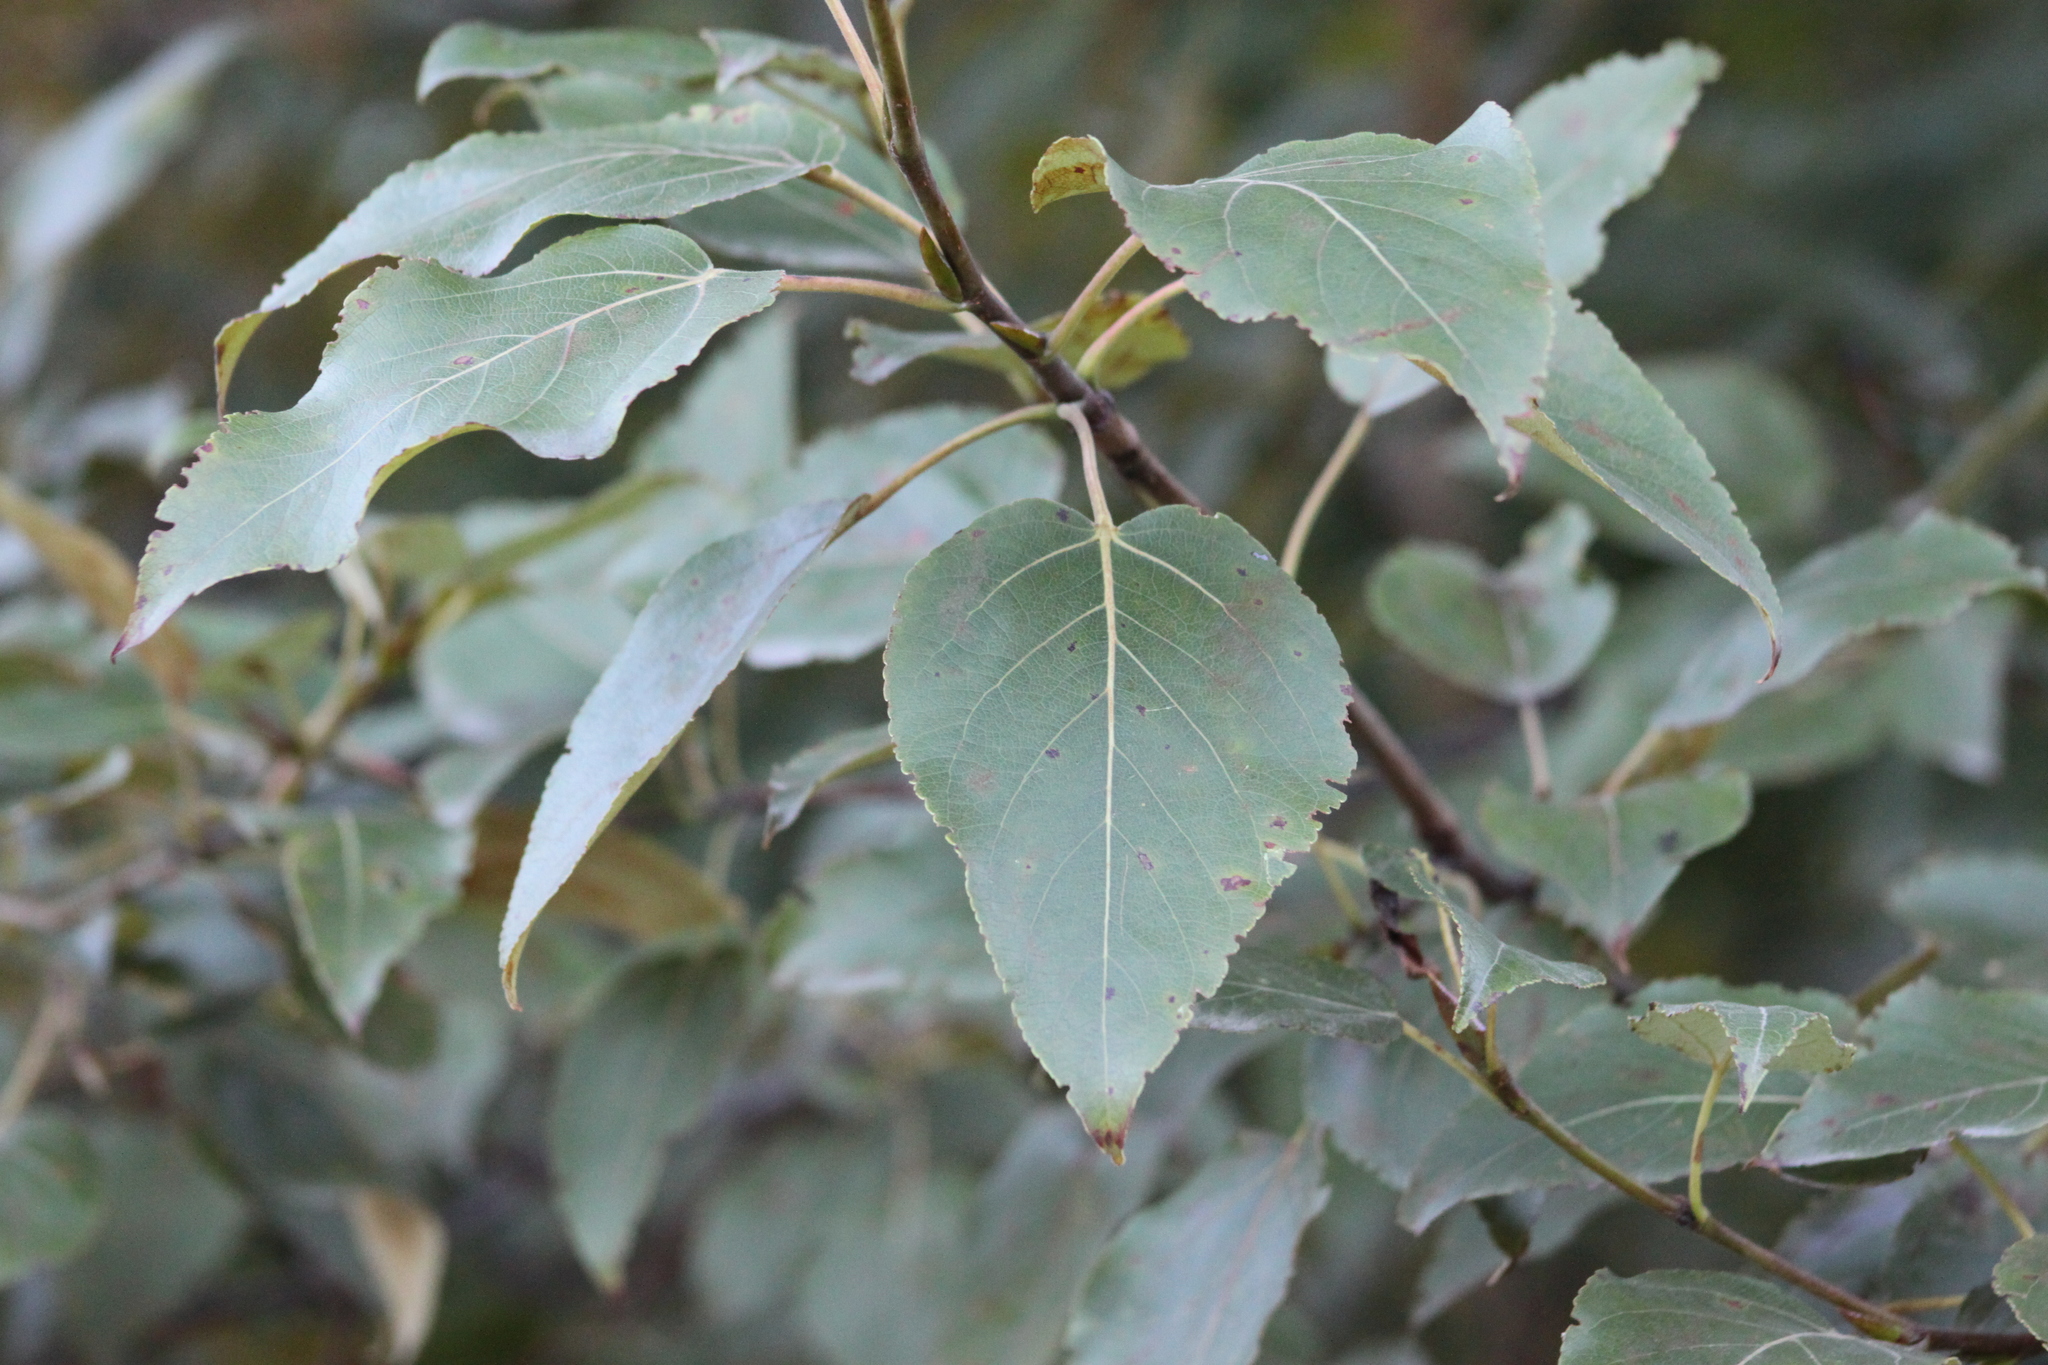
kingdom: Plantae
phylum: Tracheophyta
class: Magnoliopsida
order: Malpighiales
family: Salicaceae
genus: Populus
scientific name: Populus balsamifera
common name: Balsam poplar
